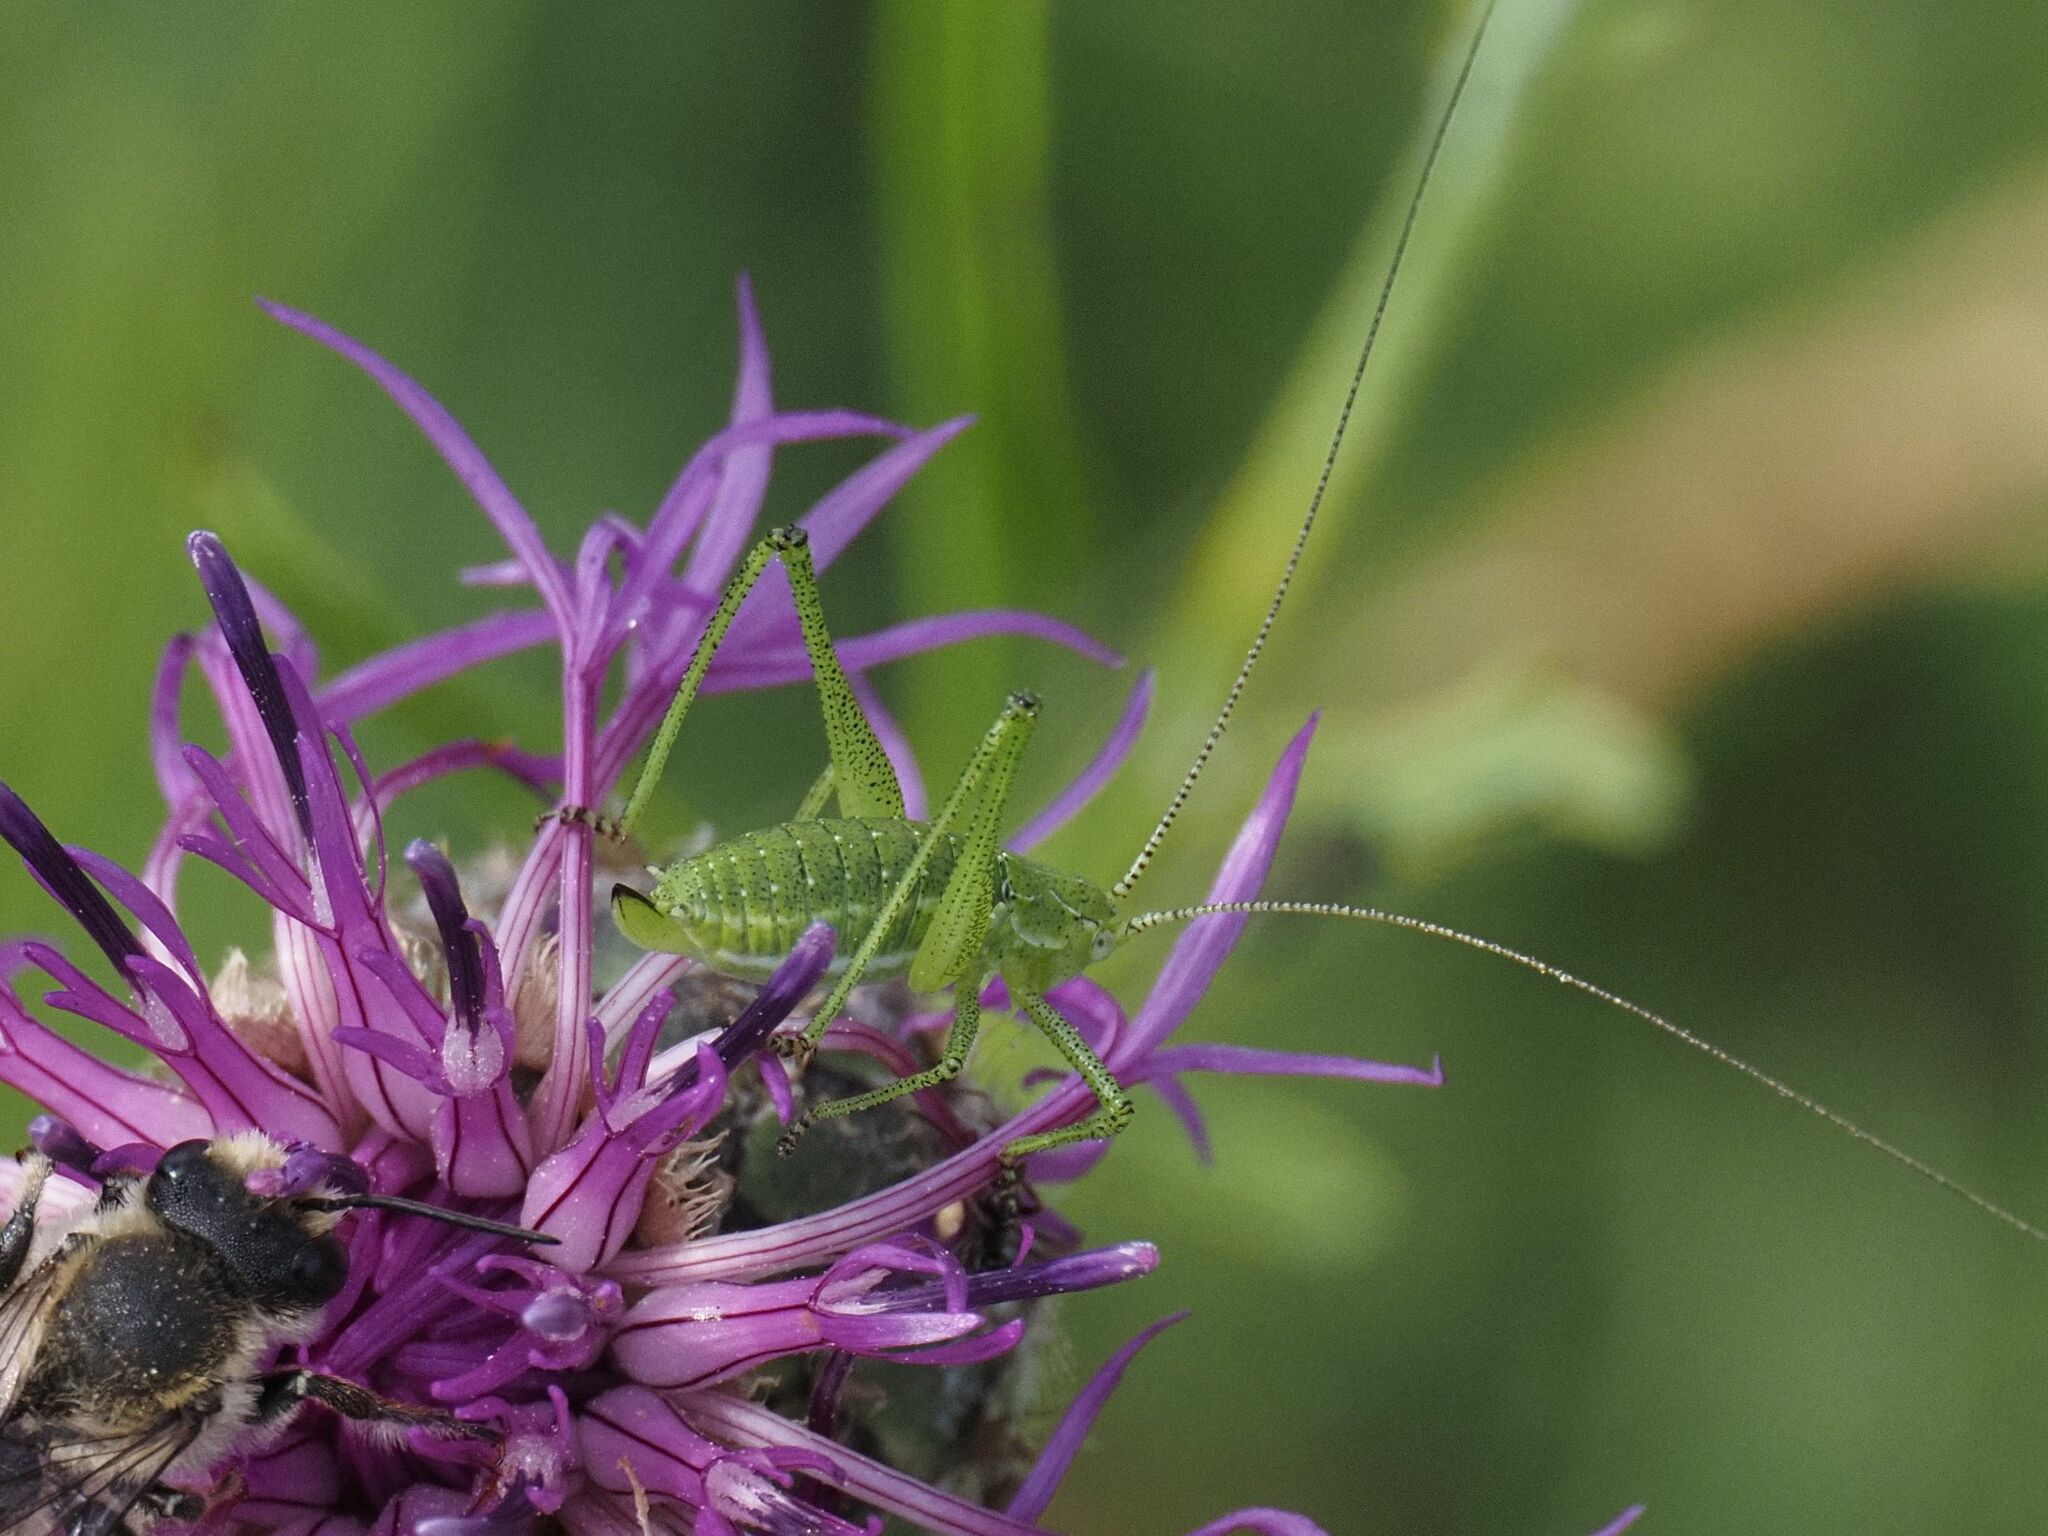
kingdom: Animalia
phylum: Arthropoda
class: Insecta
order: Orthoptera
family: Tettigoniidae
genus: Leptophyes
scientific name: Leptophyes albovittata
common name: Striped bush-cricket
